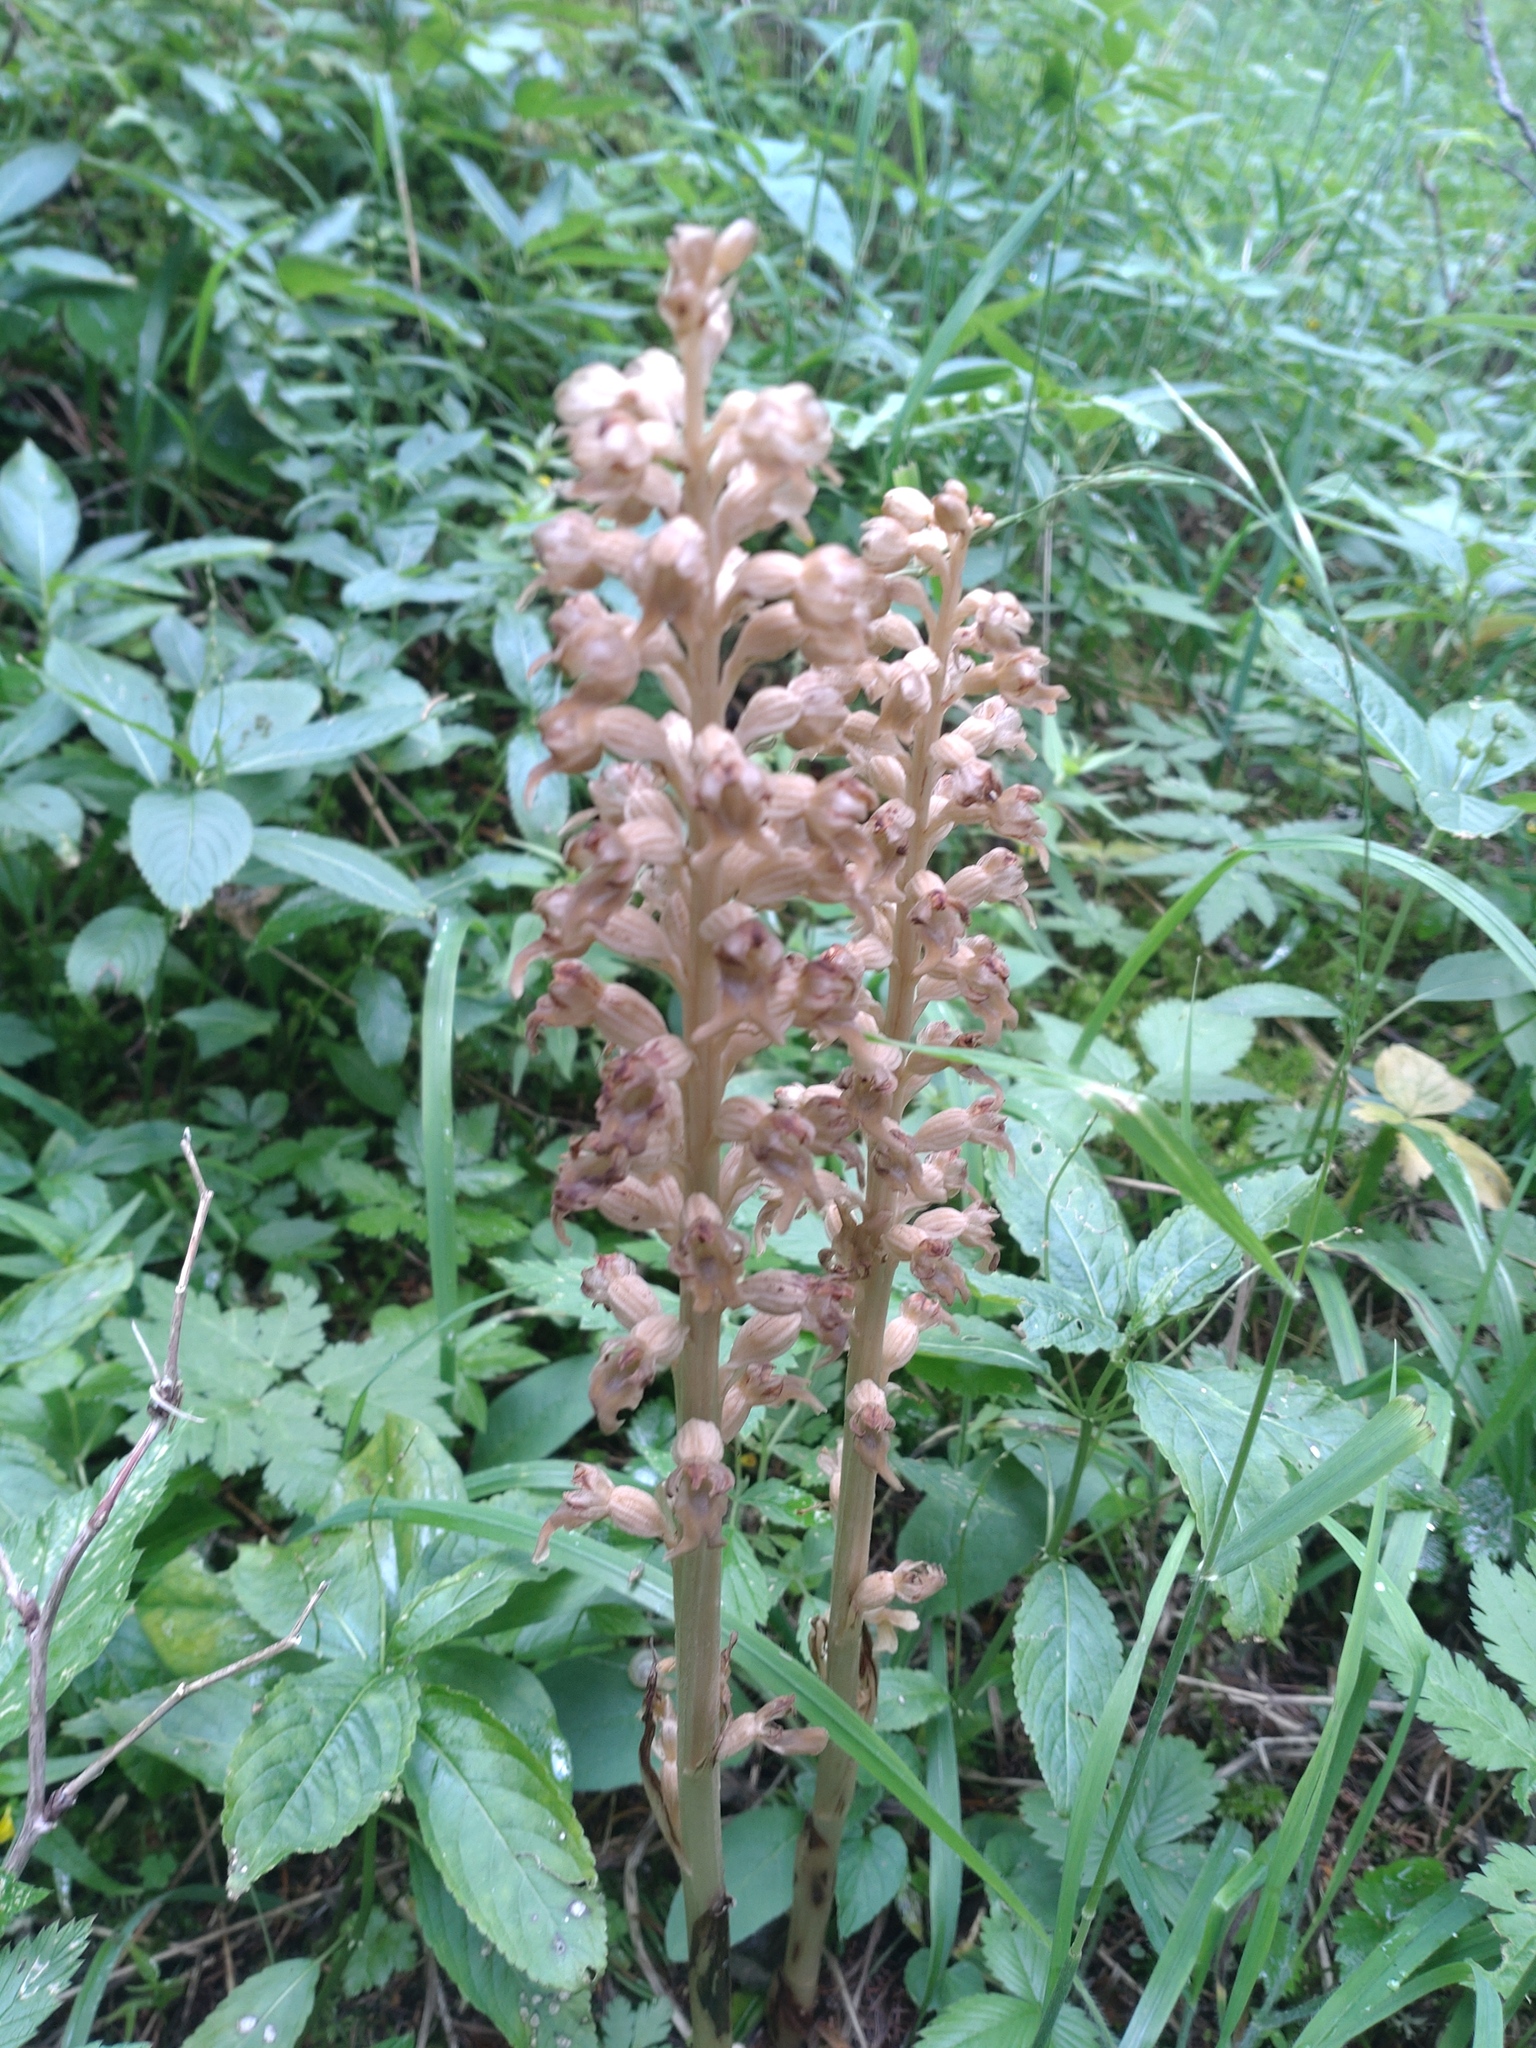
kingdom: Plantae
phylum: Tracheophyta
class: Liliopsida
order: Asparagales
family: Orchidaceae
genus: Neottia
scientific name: Neottia nidus-avis
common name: Bird's-nest orchid
